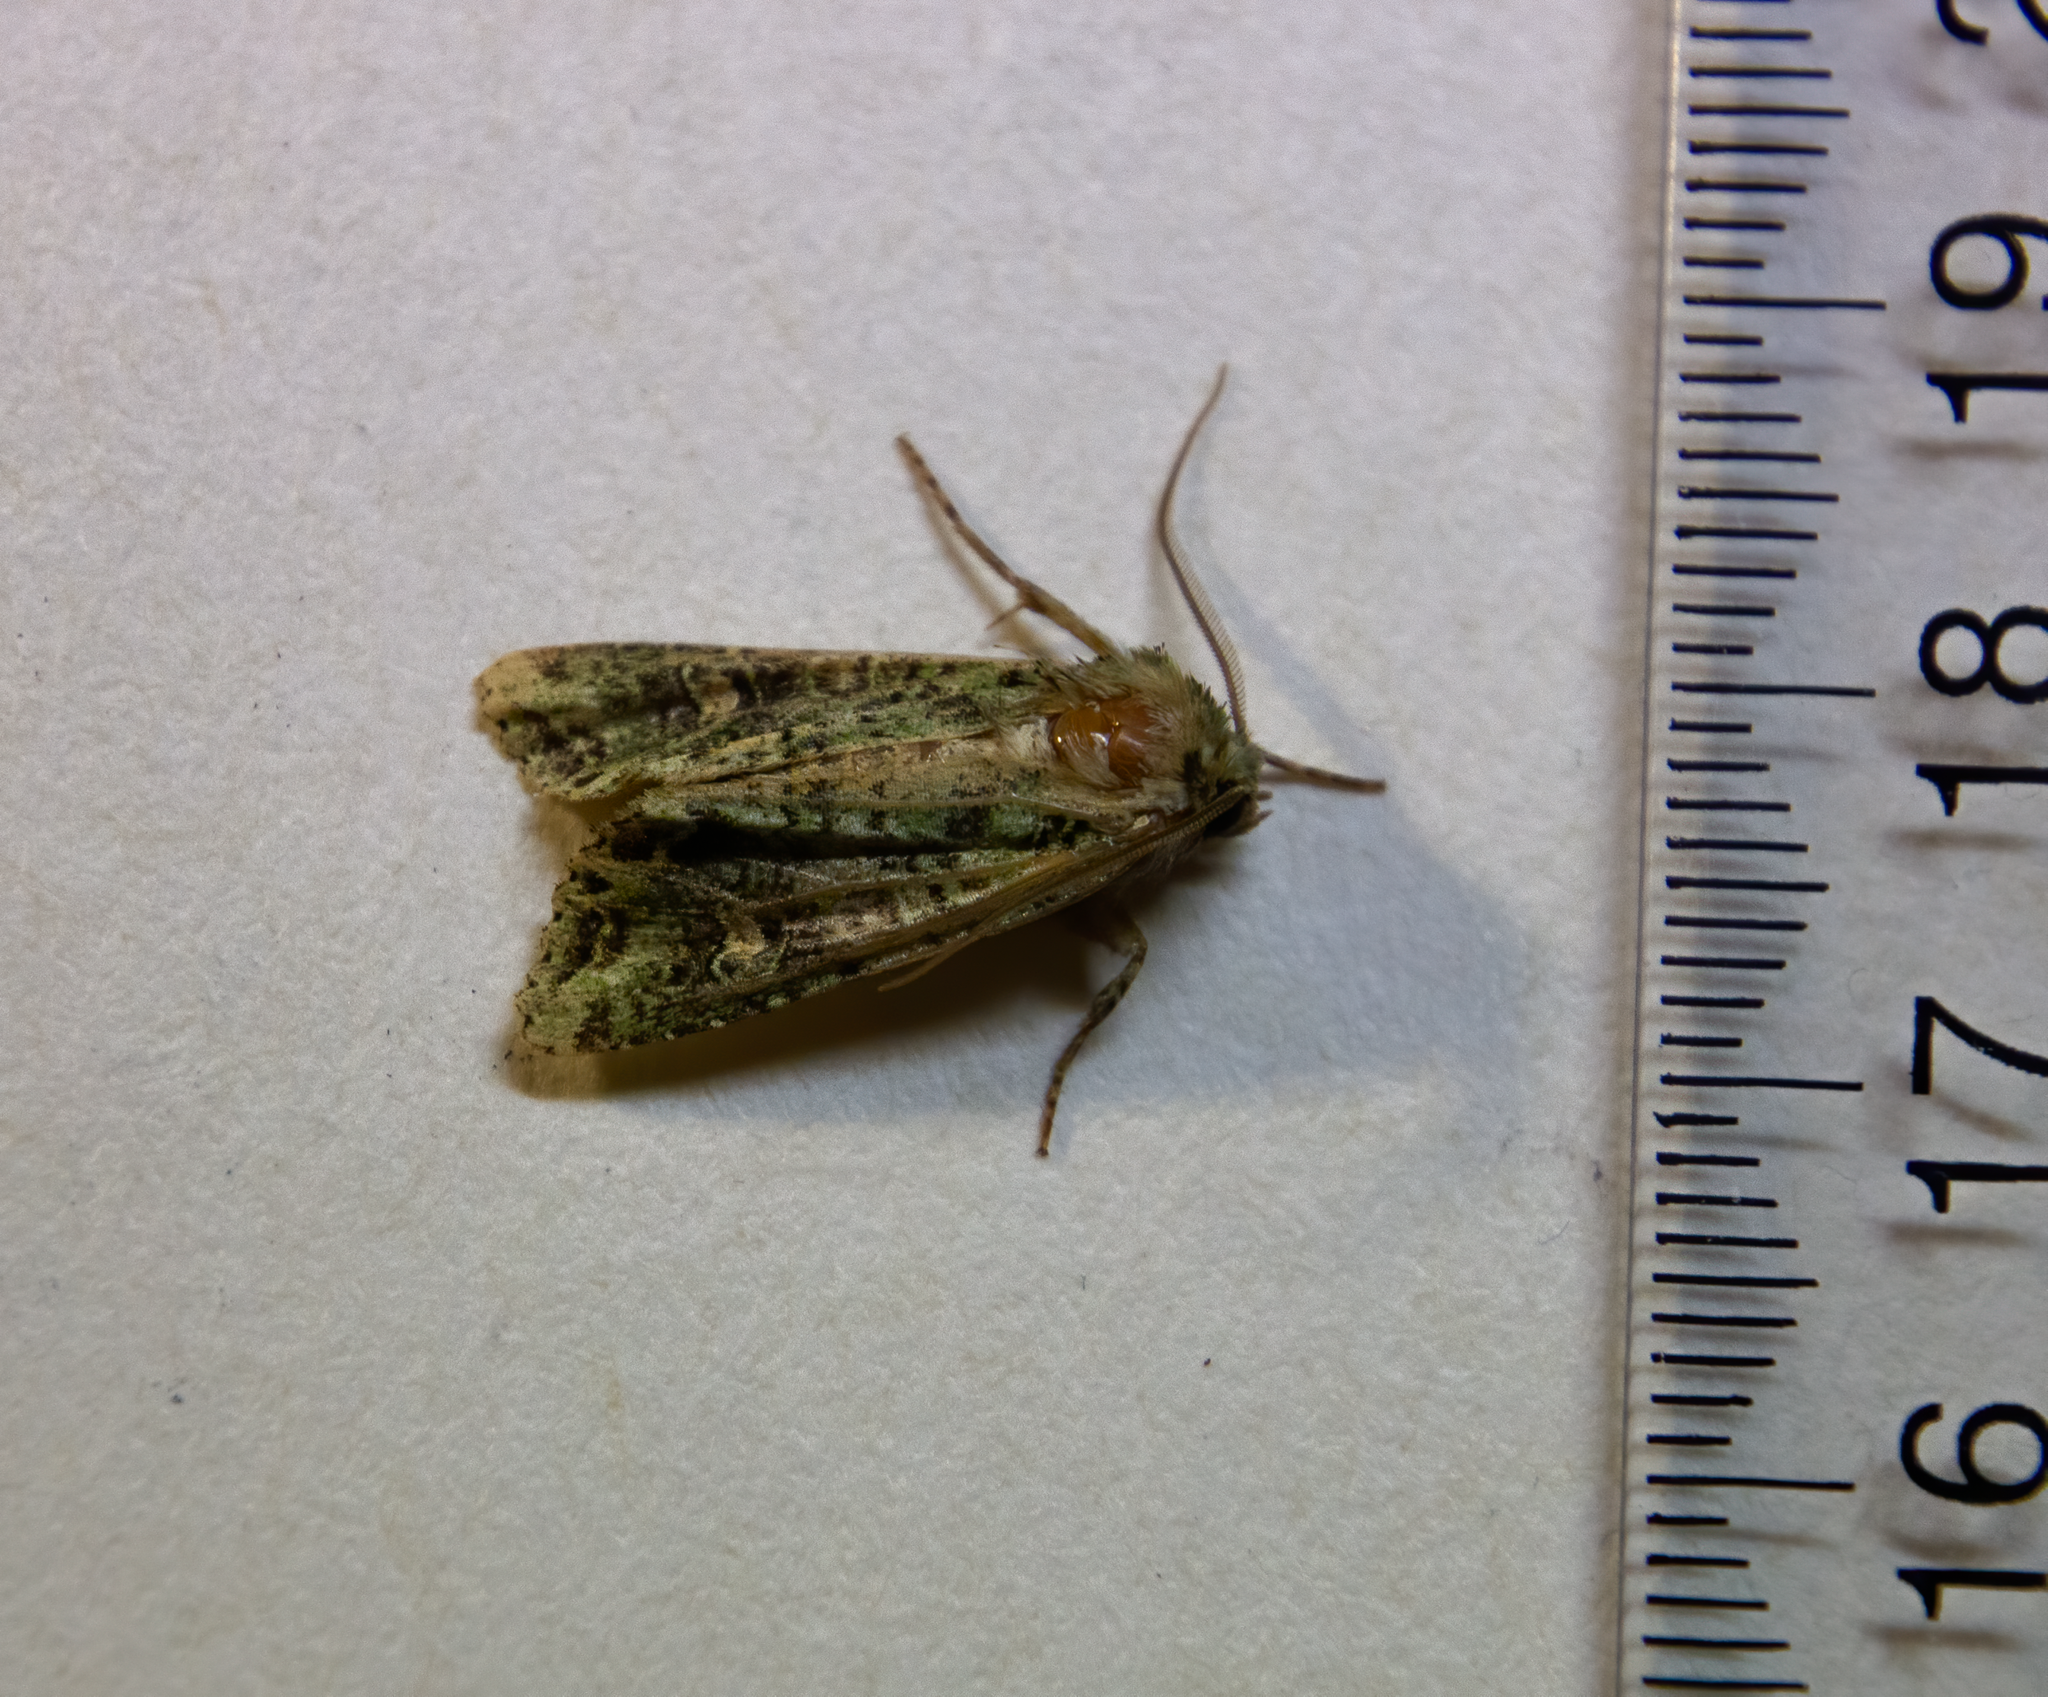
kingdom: Animalia
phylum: Arthropoda
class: Insecta
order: Lepidoptera
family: Noctuidae
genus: Ichneutica
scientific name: Ichneutica
